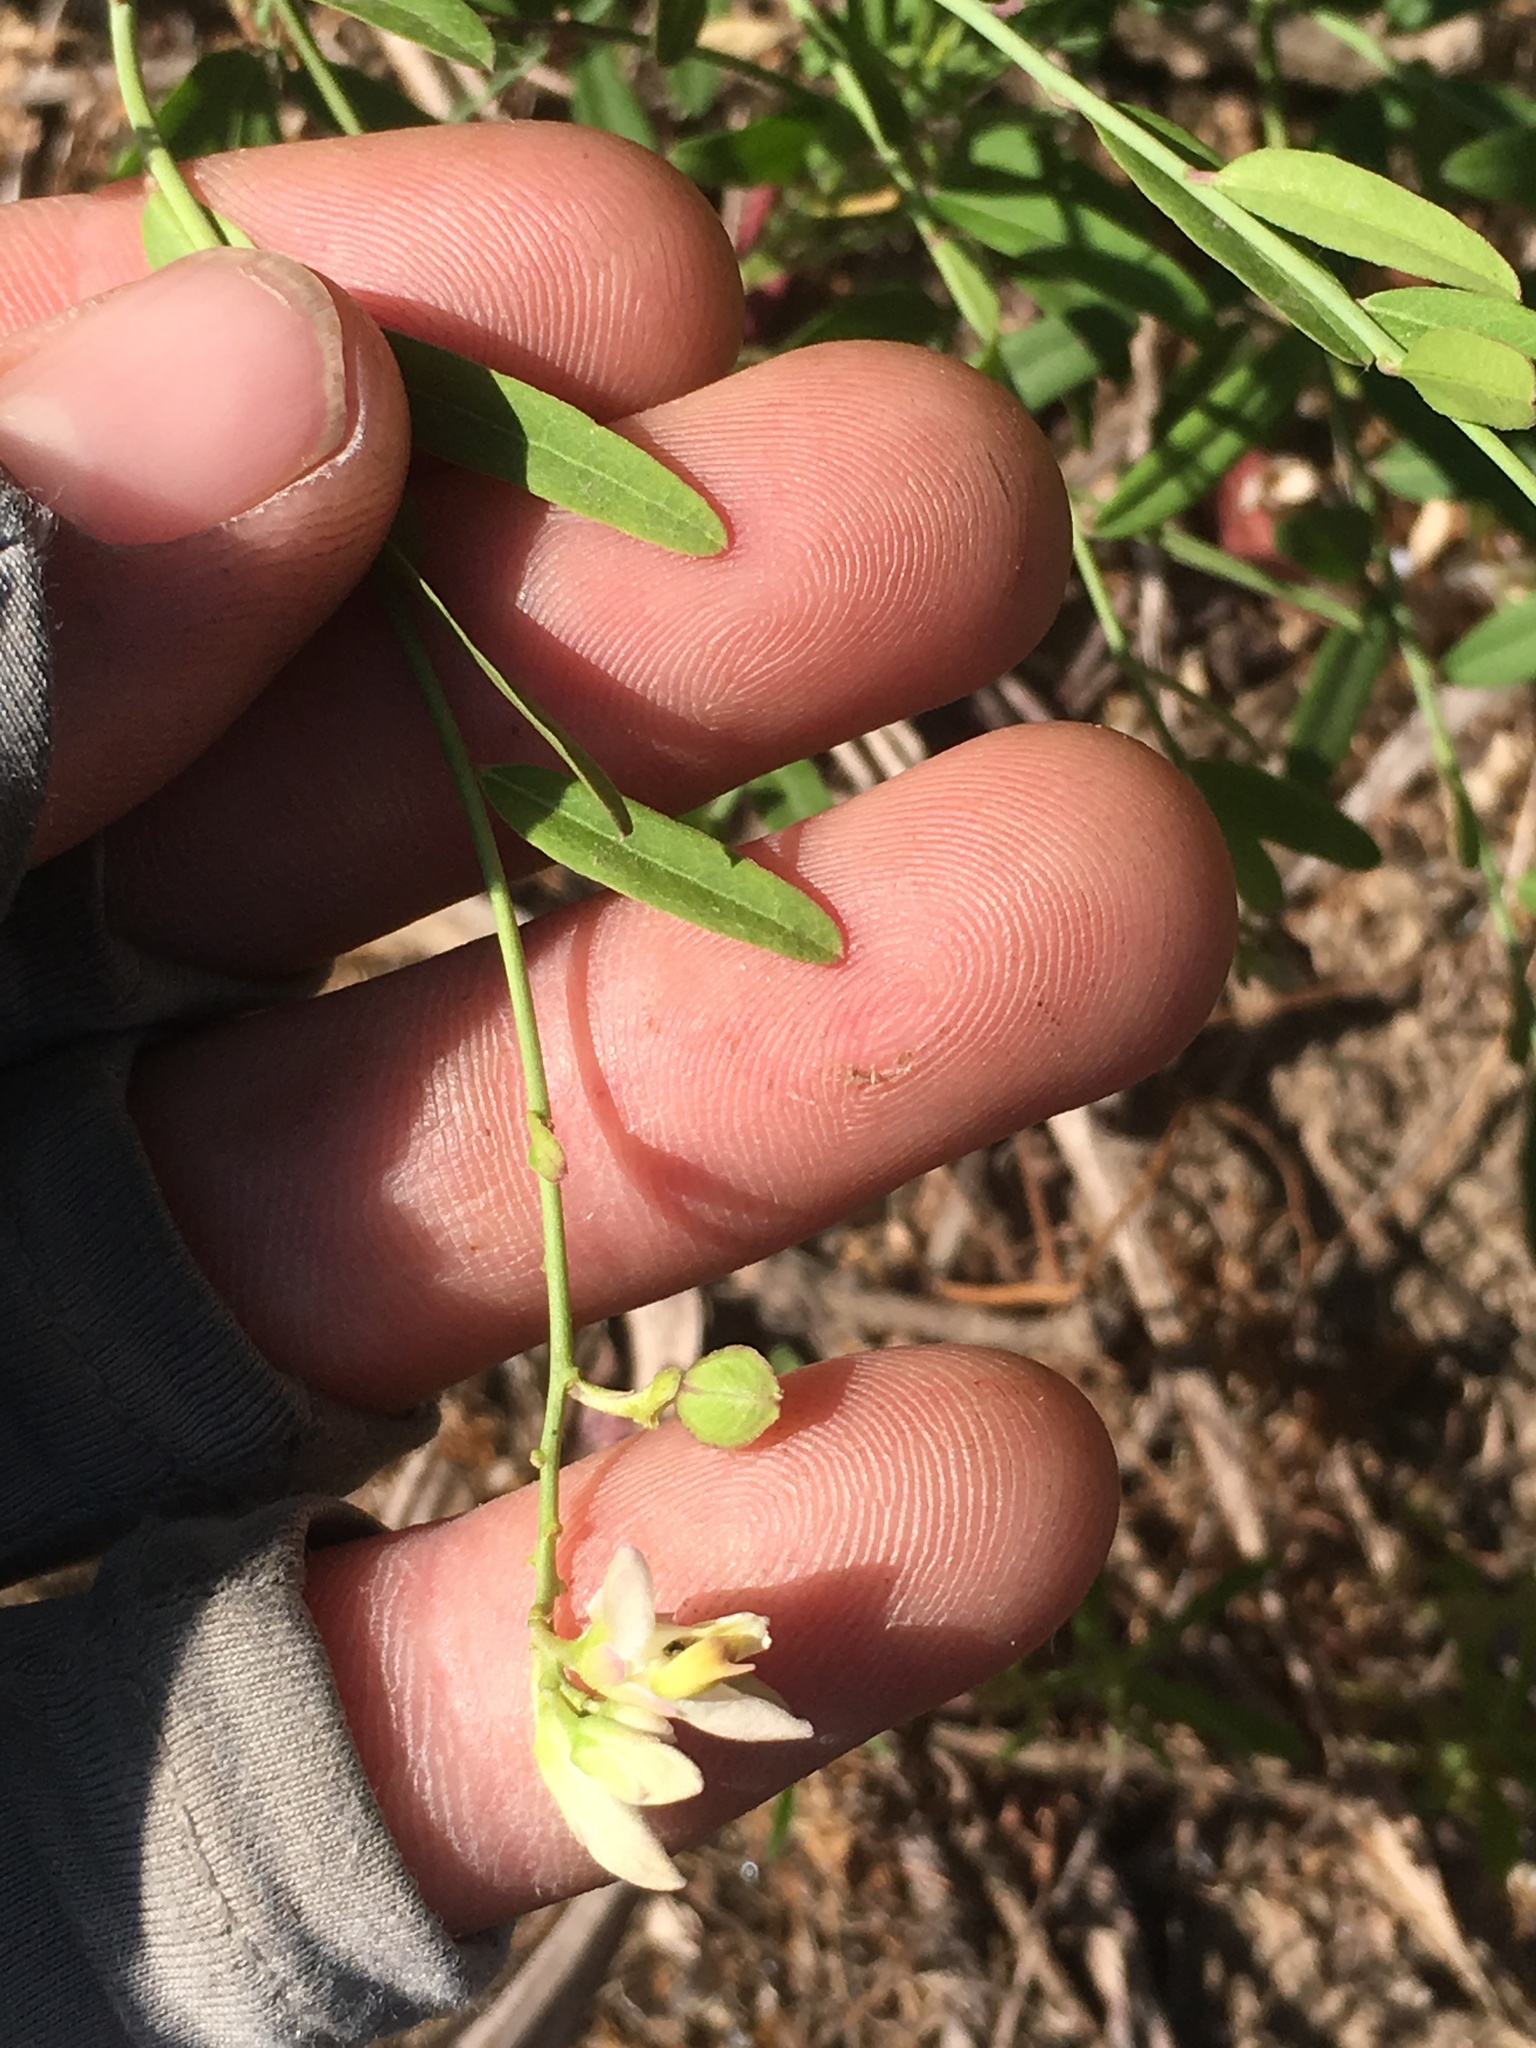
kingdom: Plantae
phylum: Tracheophyta
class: Magnoliopsida
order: Fabales
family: Polygalaceae
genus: Rhinotropis
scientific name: Rhinotropis cornuta
